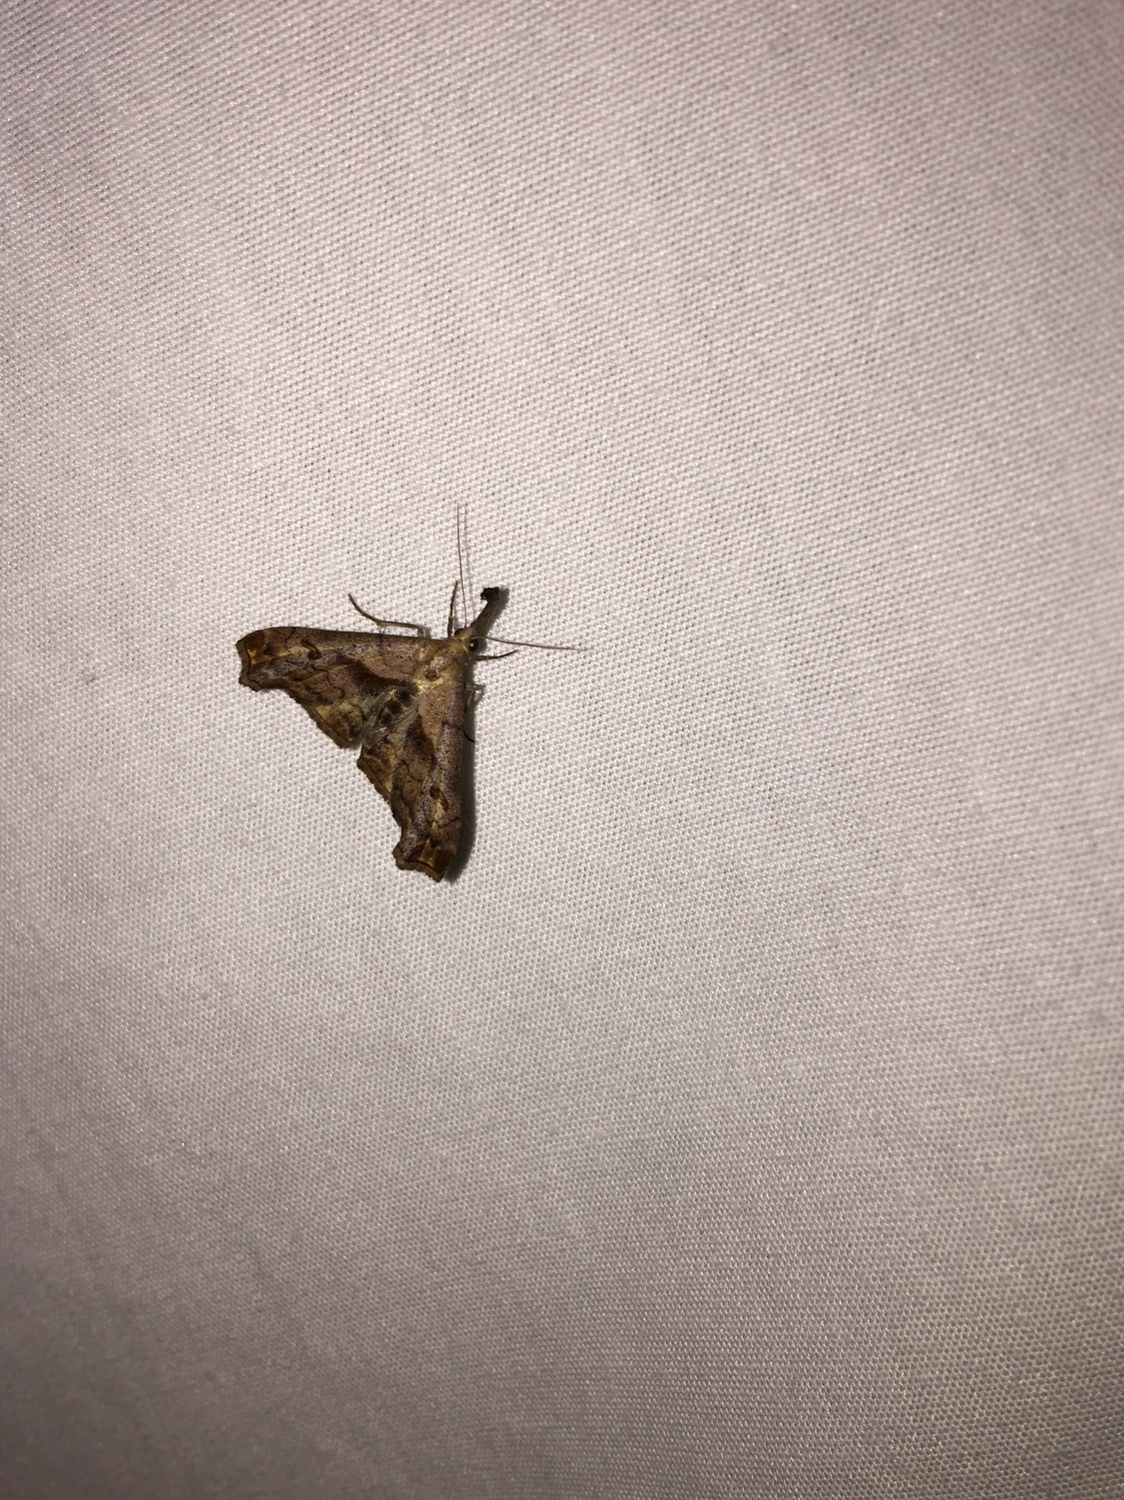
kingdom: Animalia
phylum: Arthropoda
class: Insecta
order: Lepidoptera
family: Erebidae
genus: Palthis
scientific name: Palthis angulalis
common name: Dark-spotted palthis moth
